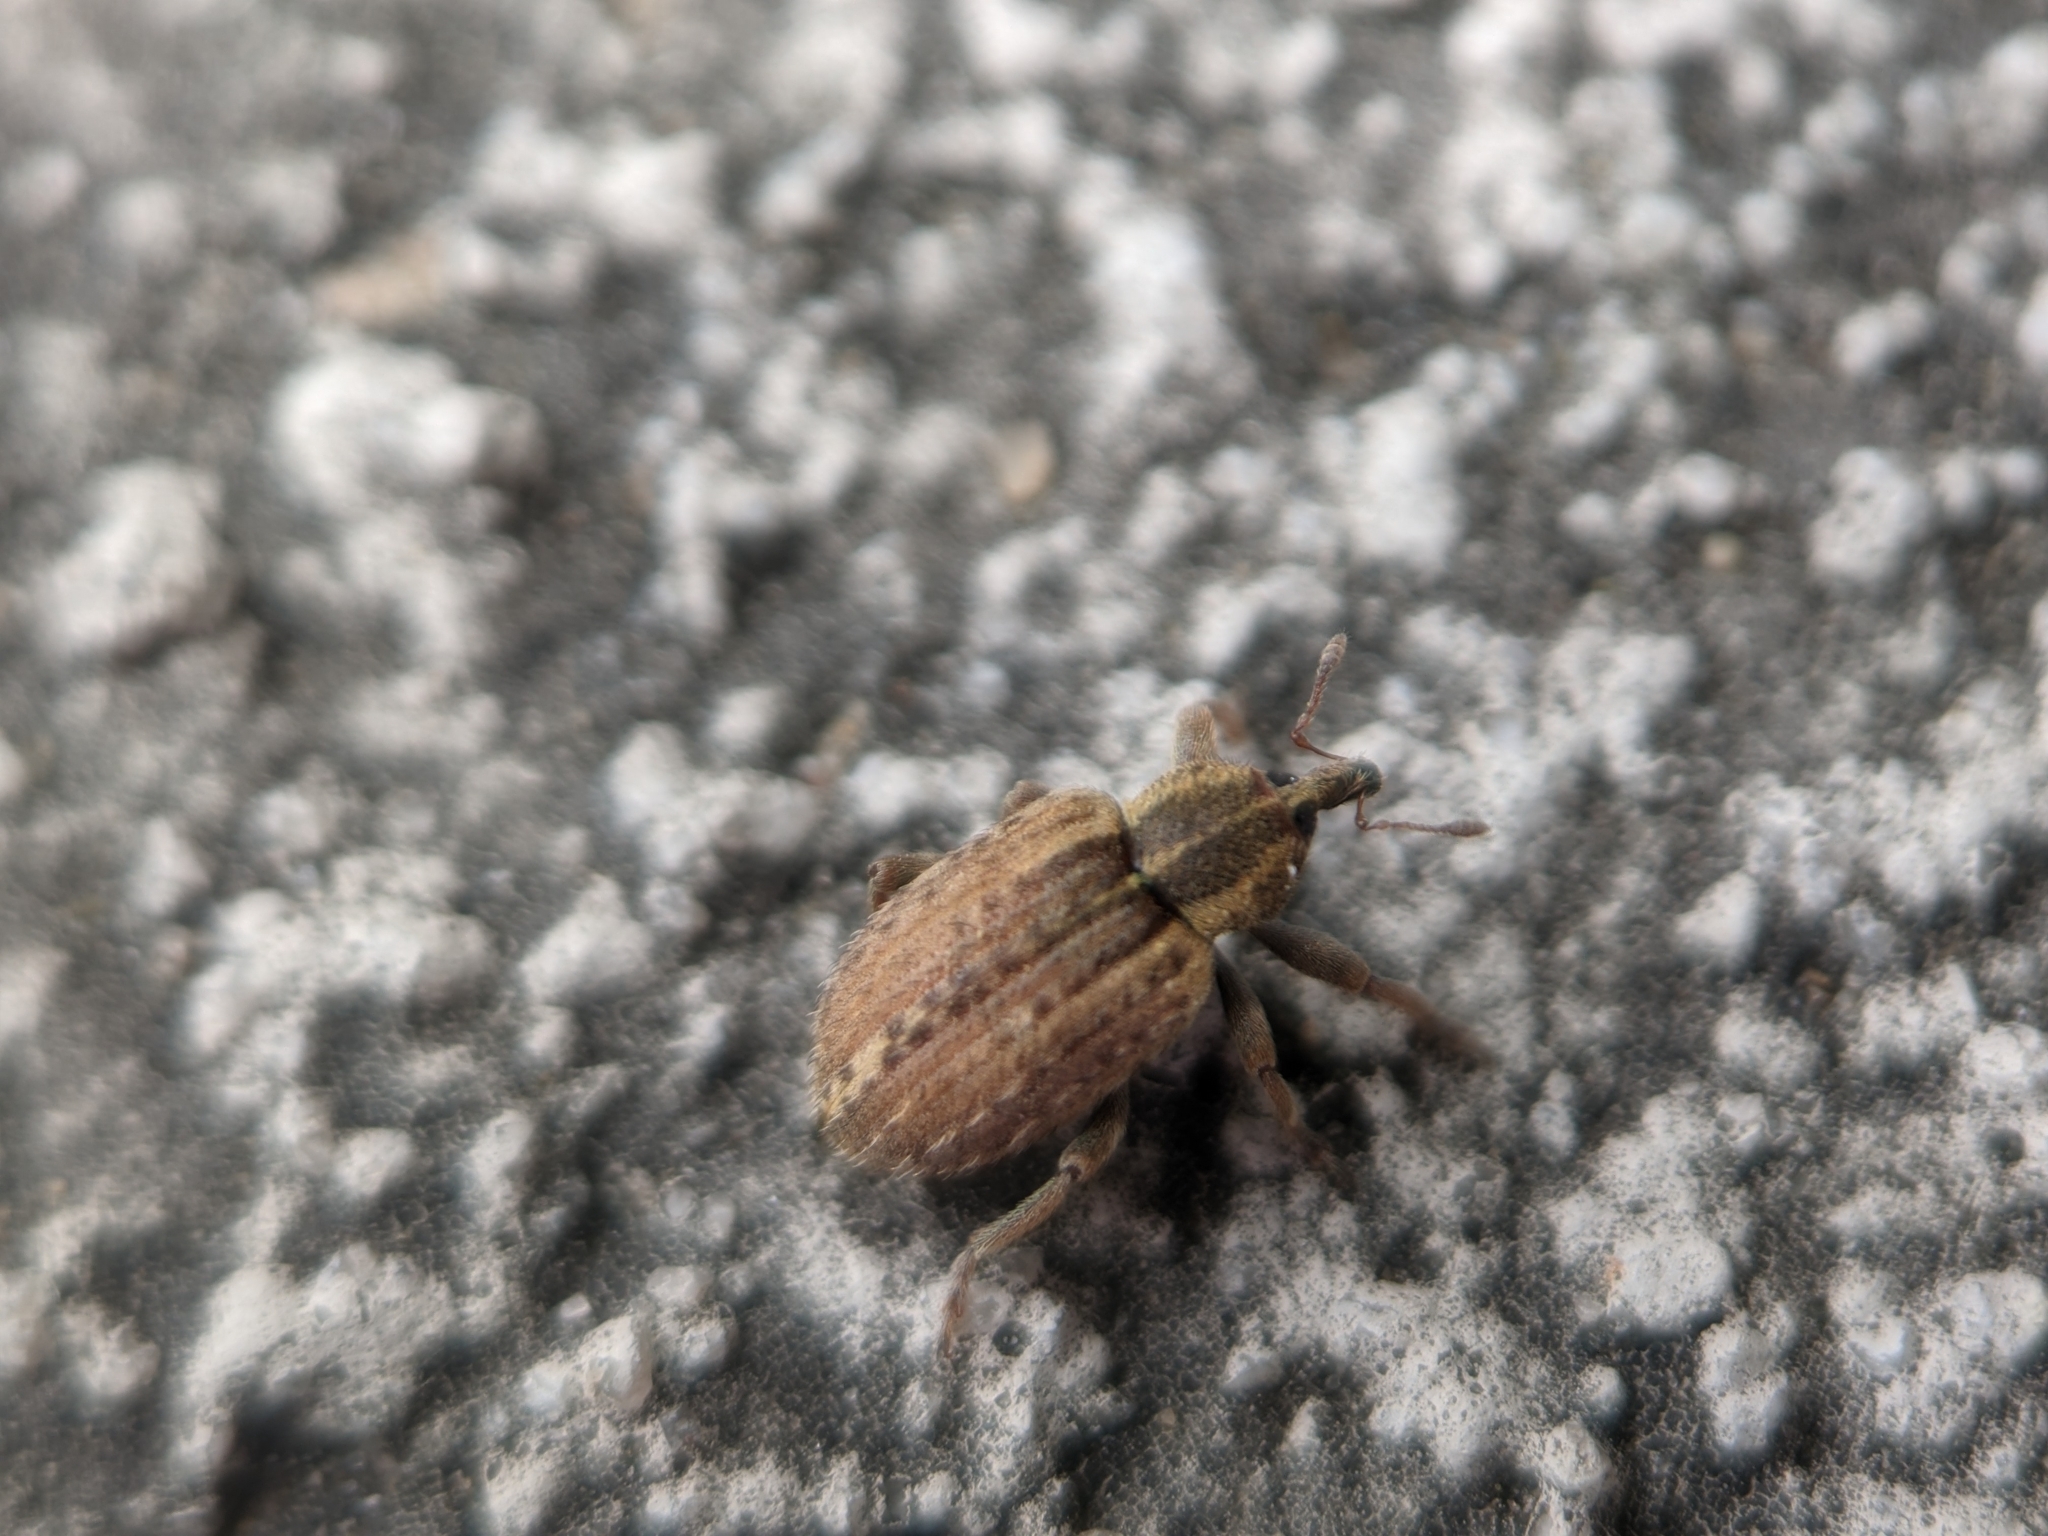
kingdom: Animalia
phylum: Arthropoda
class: Insecta
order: Coleoptera
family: Curculionidae
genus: Hypera
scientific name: Hypera postica
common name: Weevil
